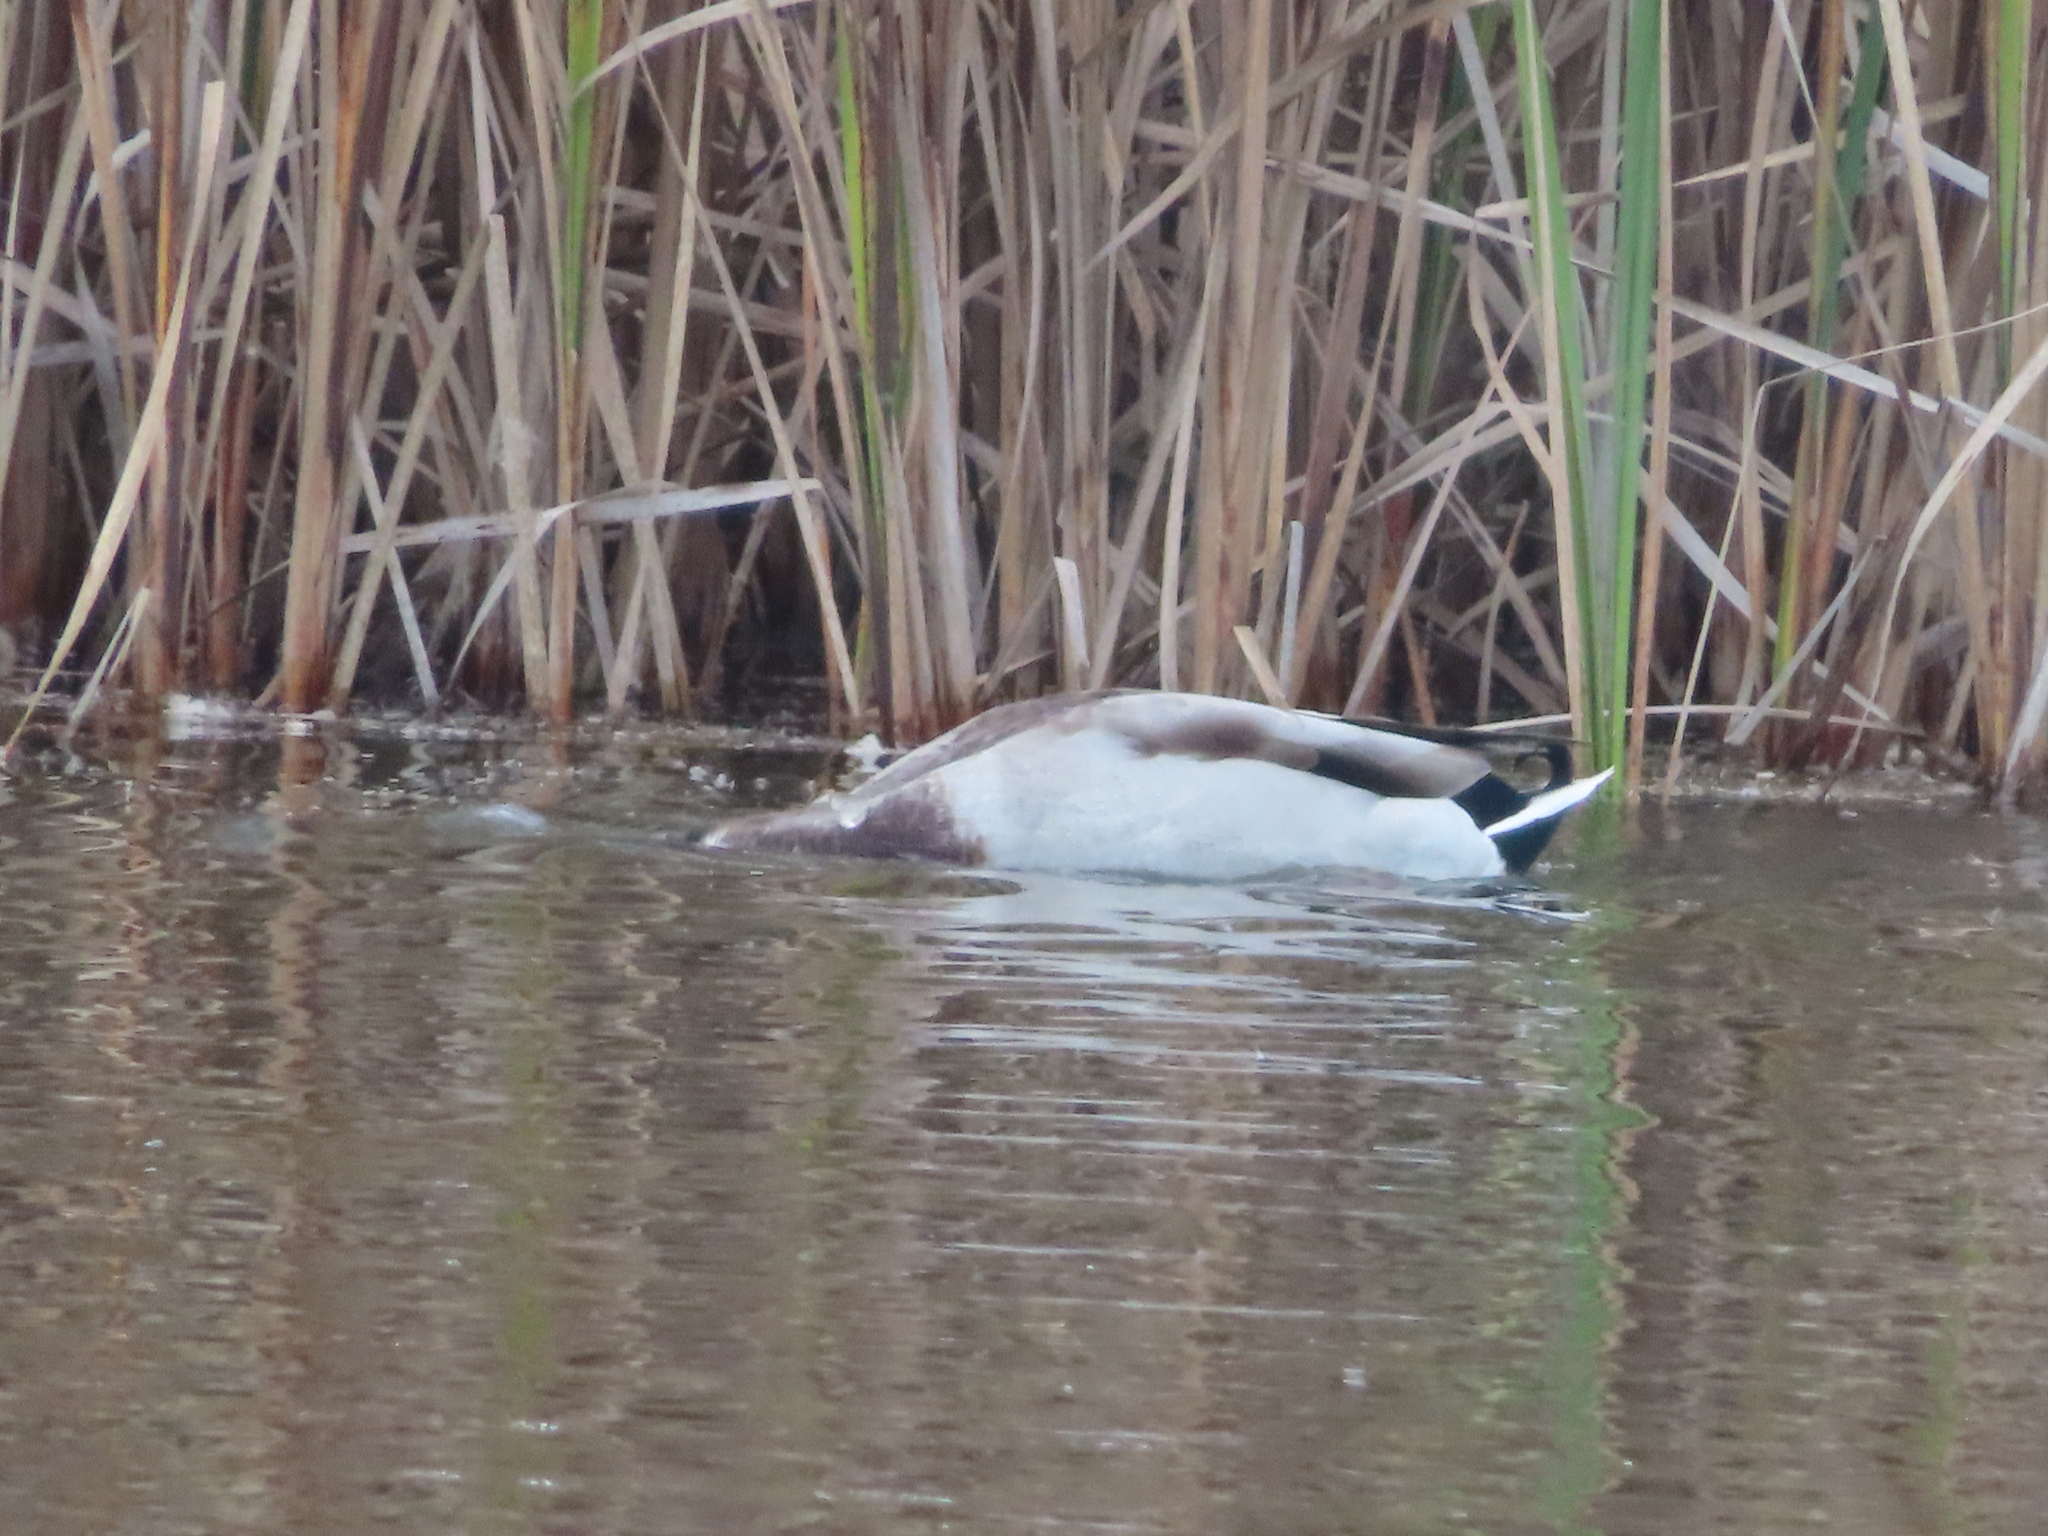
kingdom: Animalia
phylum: Chordata
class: Aves
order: Anseriformes
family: Anatidae
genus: Anas
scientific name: Anas platyrhynchos
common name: Mallard
